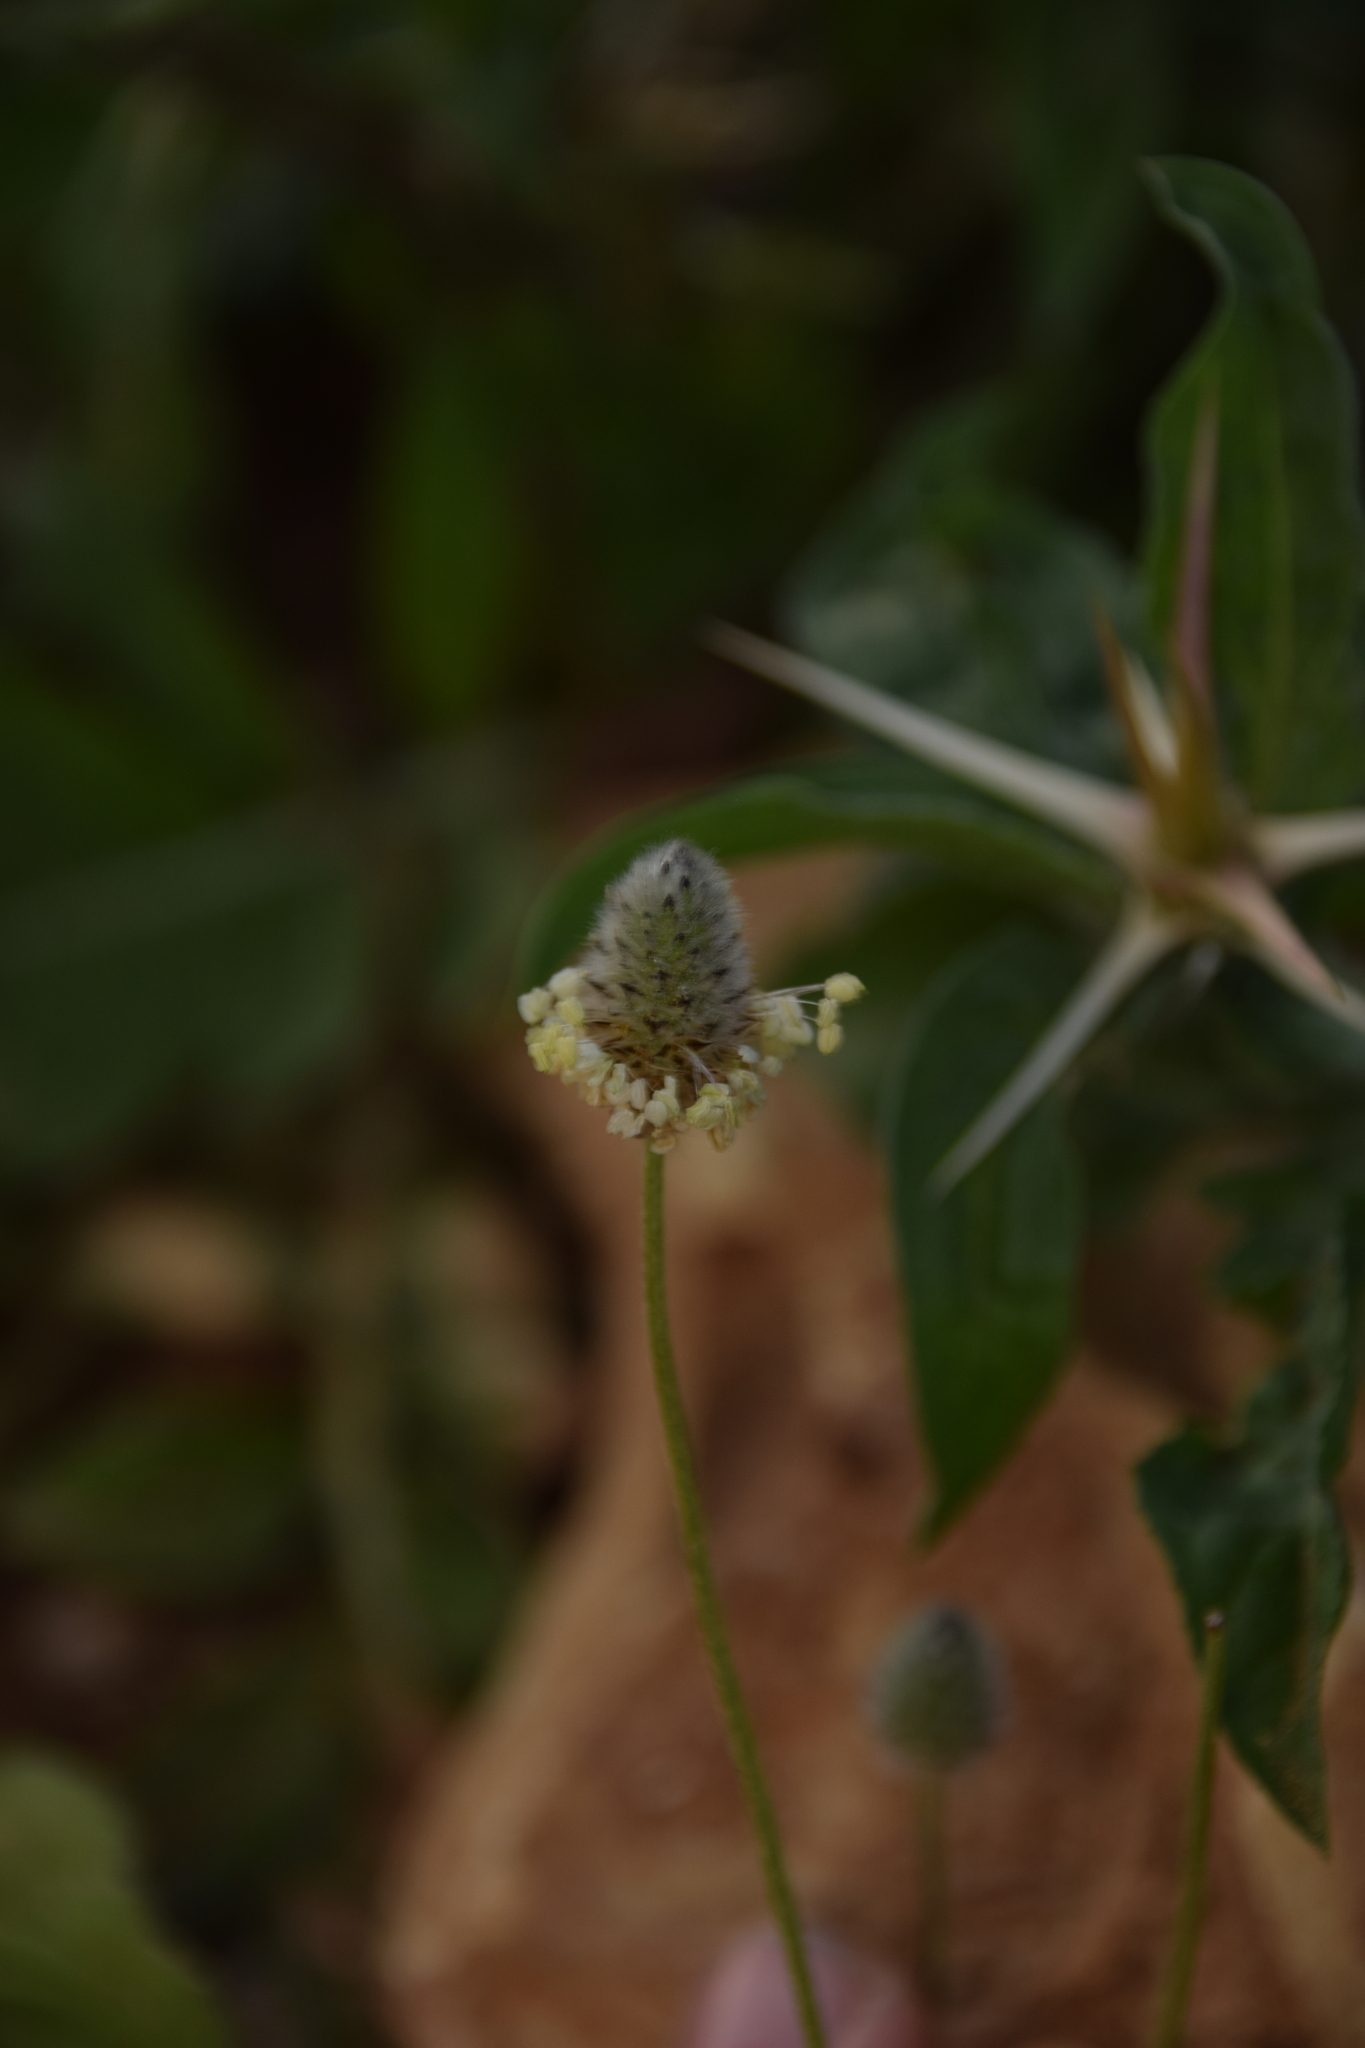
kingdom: Plantae
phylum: Tracheophyta
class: Magnoliopsida
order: Lamiales
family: Plantaginaceae
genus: Plantago
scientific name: Plantago lagopus
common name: Hare-foot plantain
